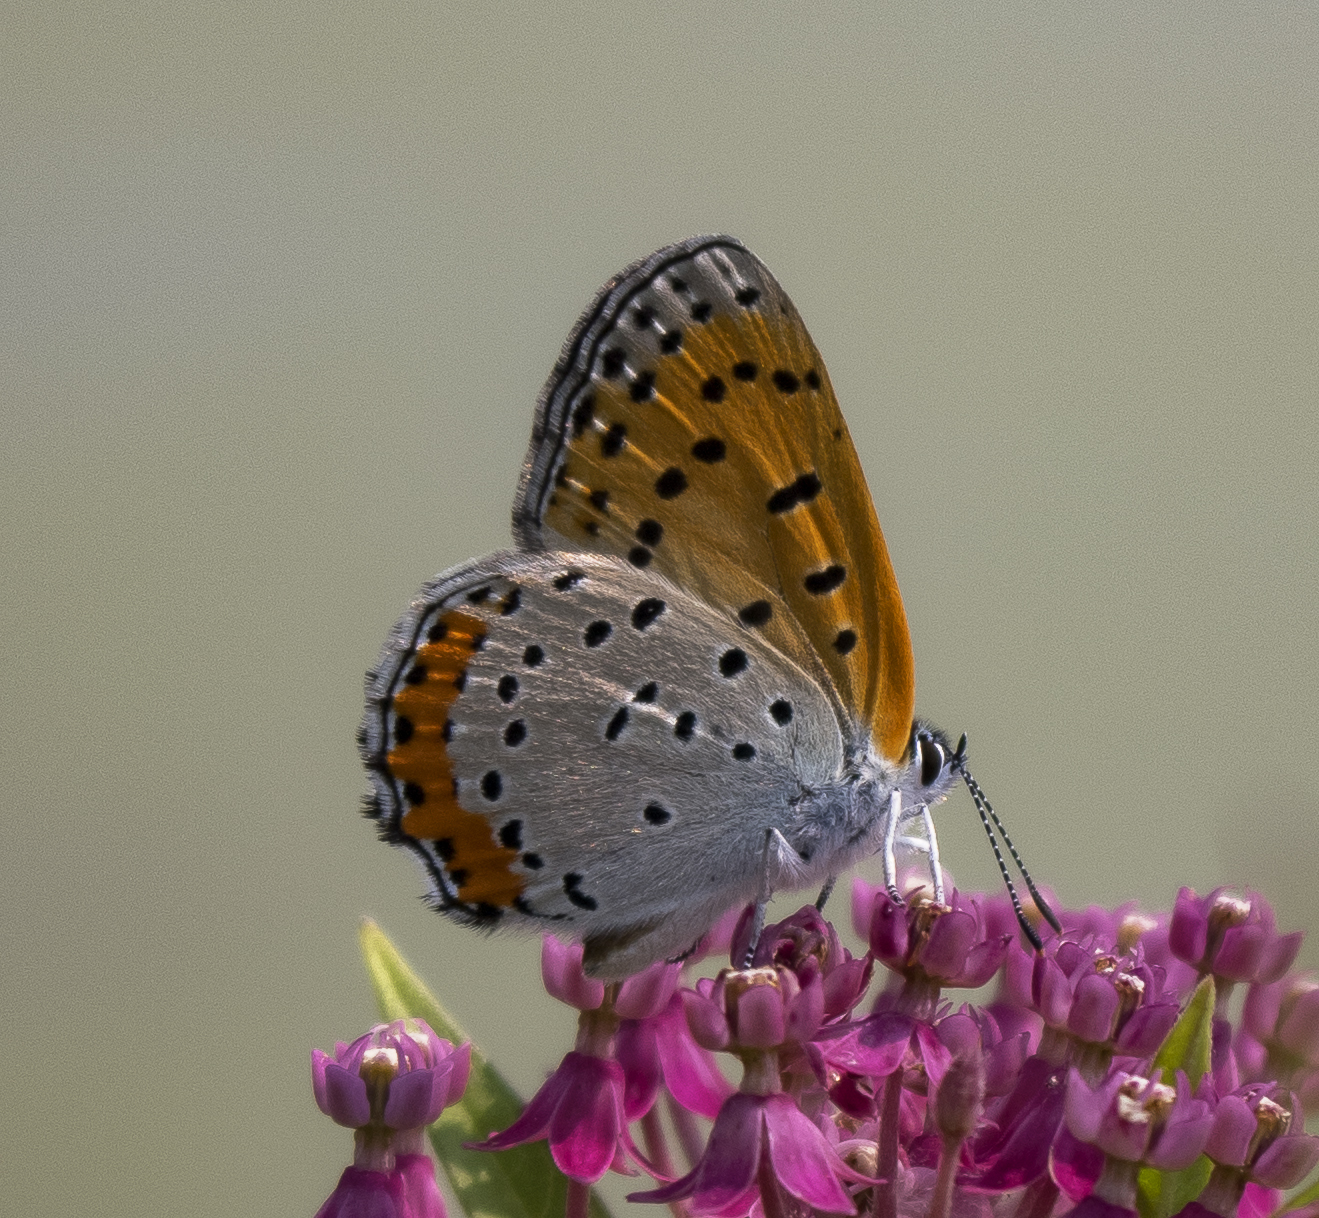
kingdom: Animalia
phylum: Arthropoda
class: Insecta
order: Lepidoptera
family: Lycaenidae
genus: Tharsalea
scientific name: Tharsalea hyllus
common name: Bronze copper
